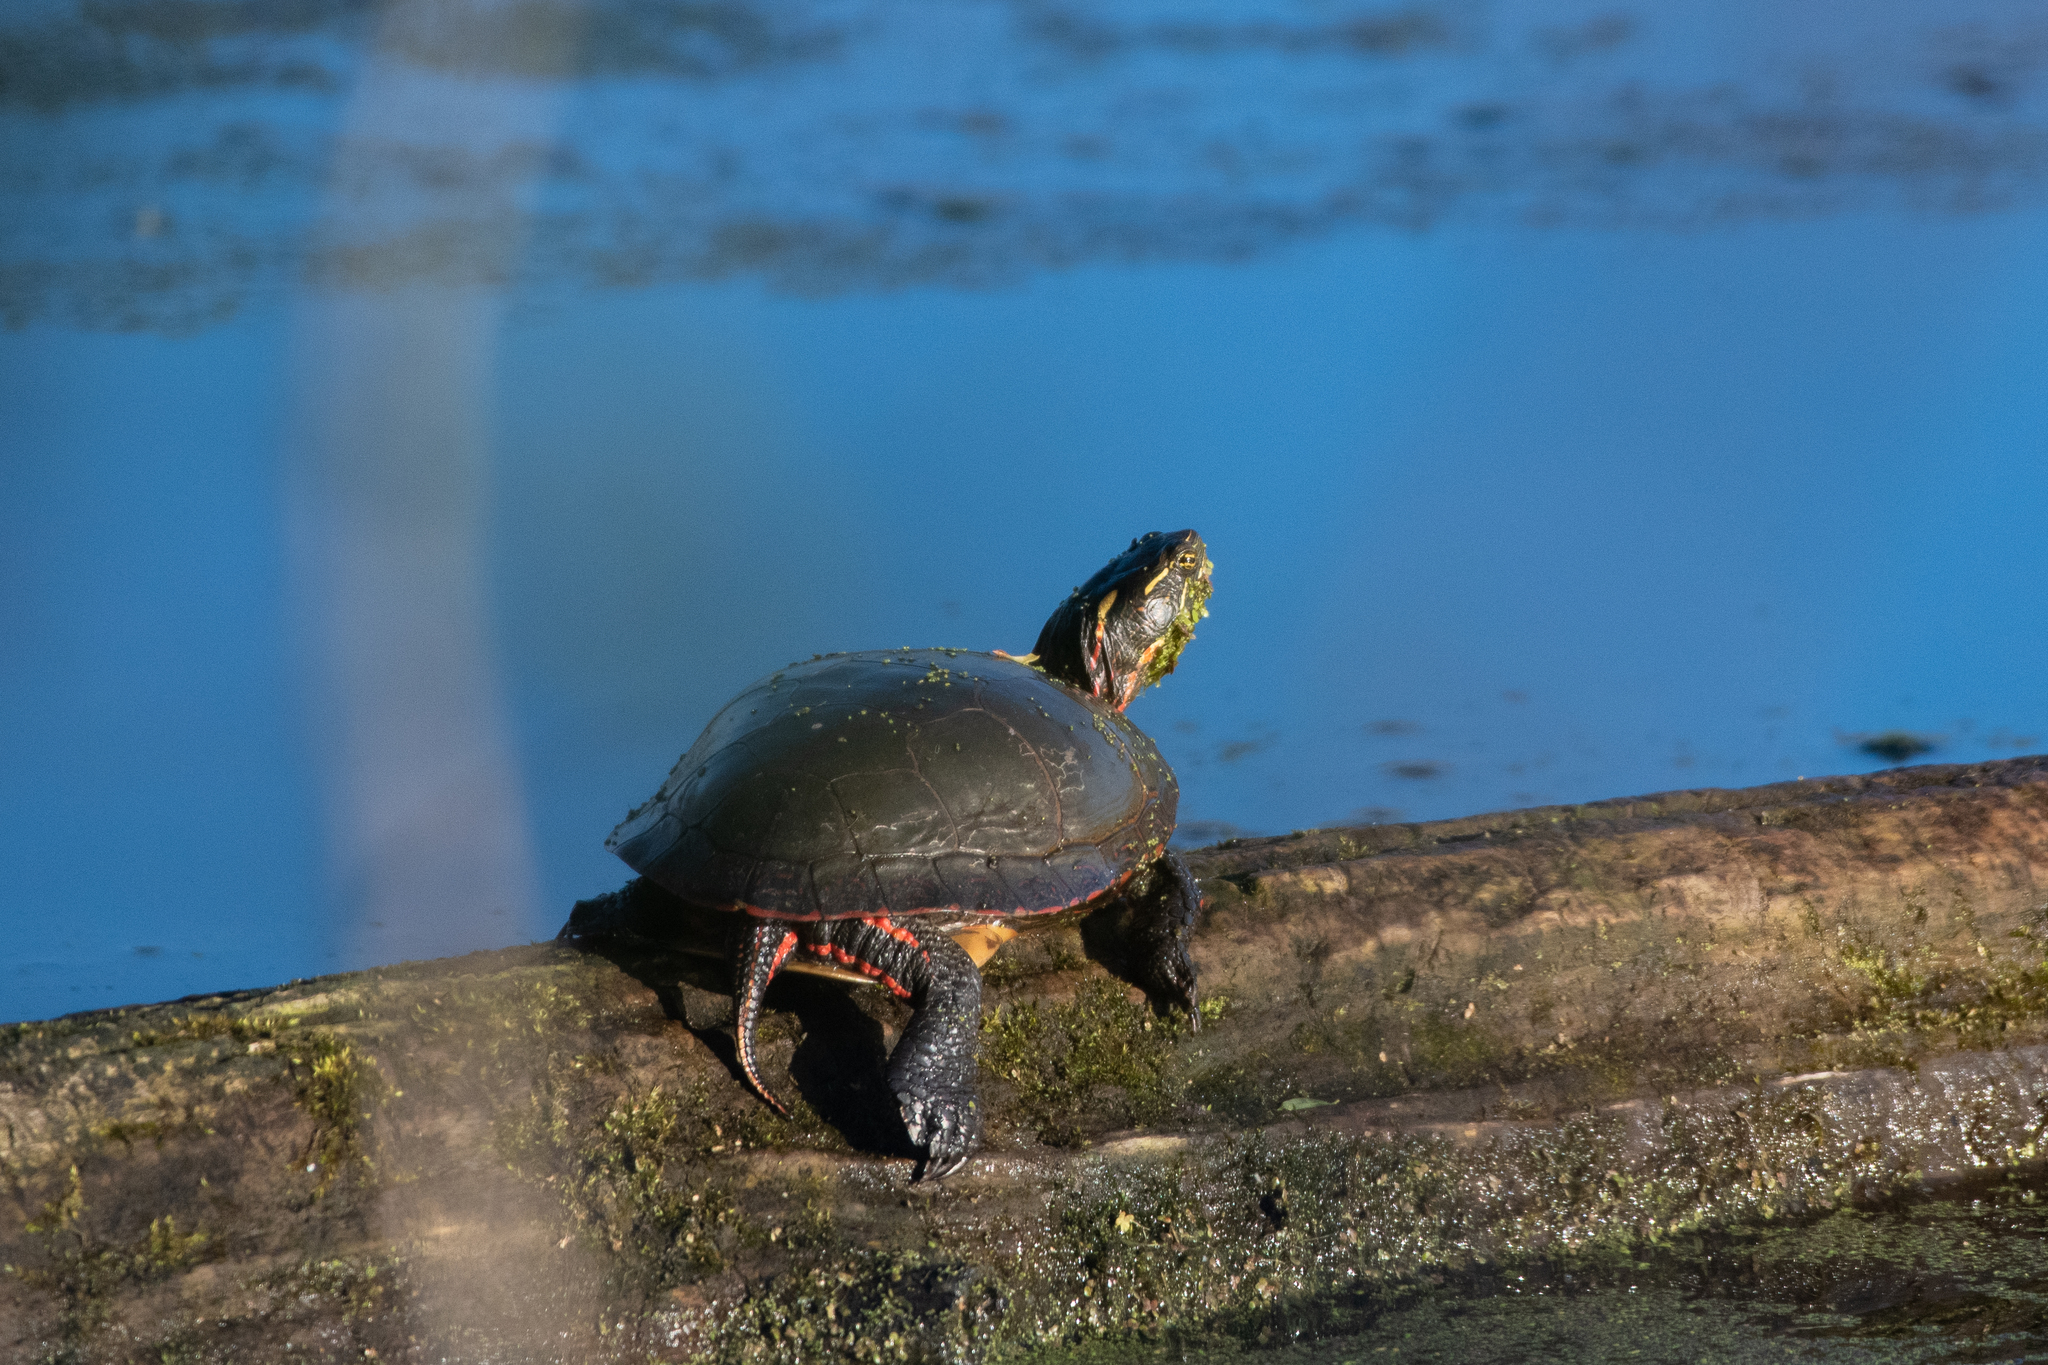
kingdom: Animalia
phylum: Chordata
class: Testudines
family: Emydidae
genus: Chrysemys
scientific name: Chrysemys picta
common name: Painted turtle
